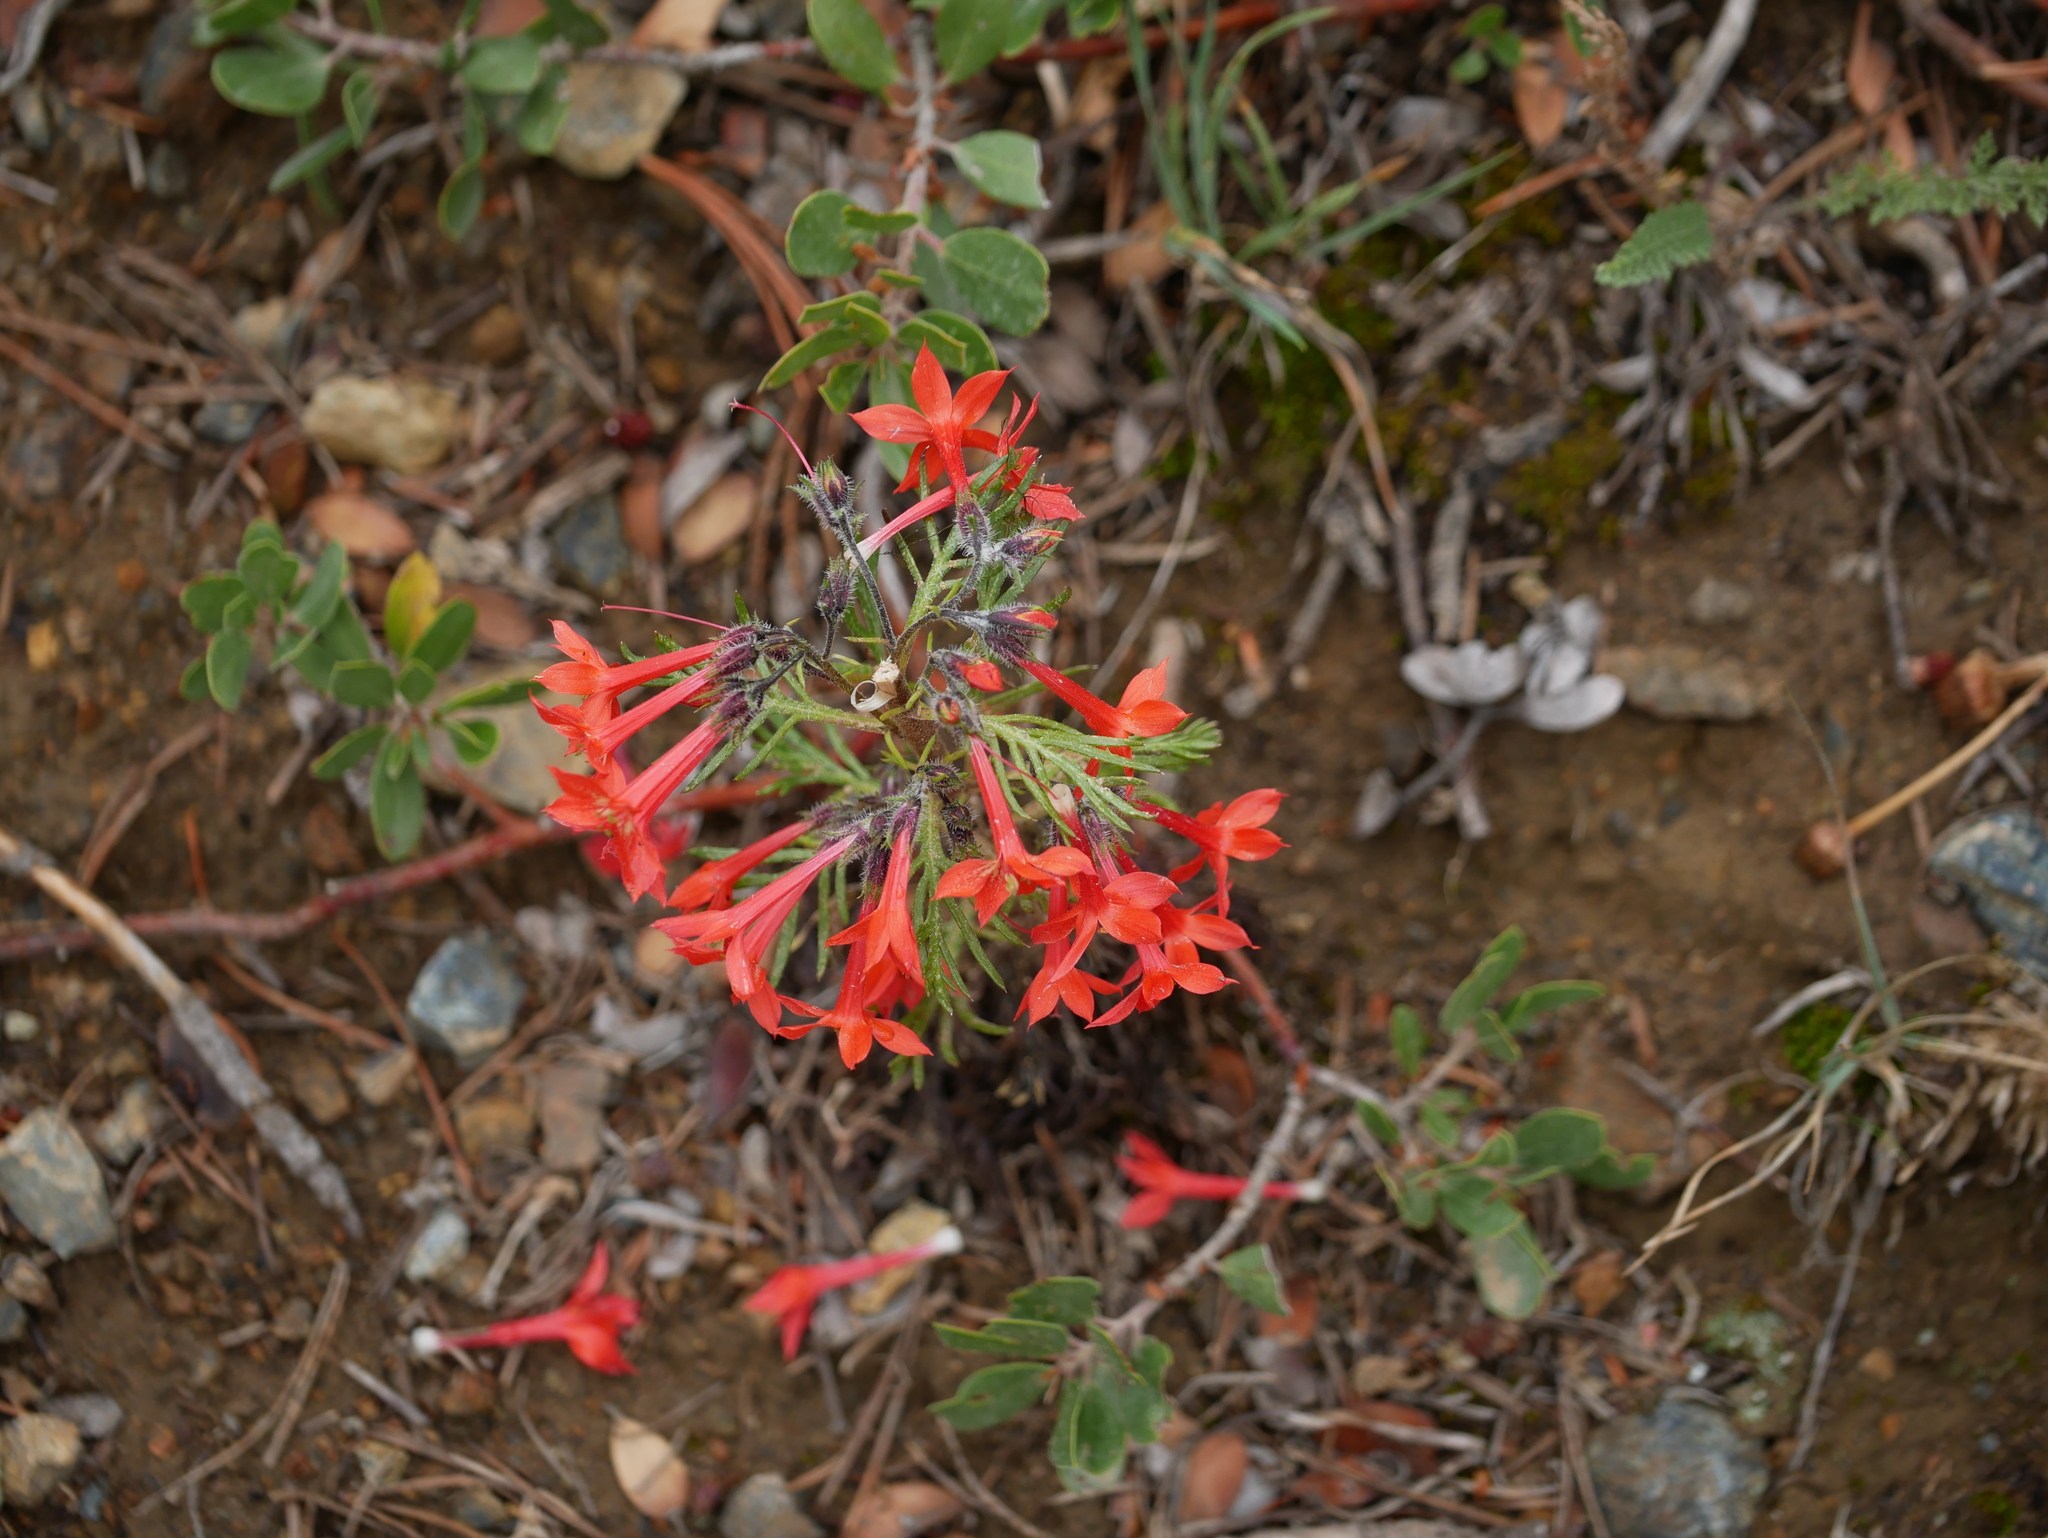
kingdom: Plantae
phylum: Tracheophyta
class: Magnoliopsida
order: Ericales
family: Polemoniaceae
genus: Ipomopsis
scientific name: Ipomopsis aggregata
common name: Scarlet gilia
